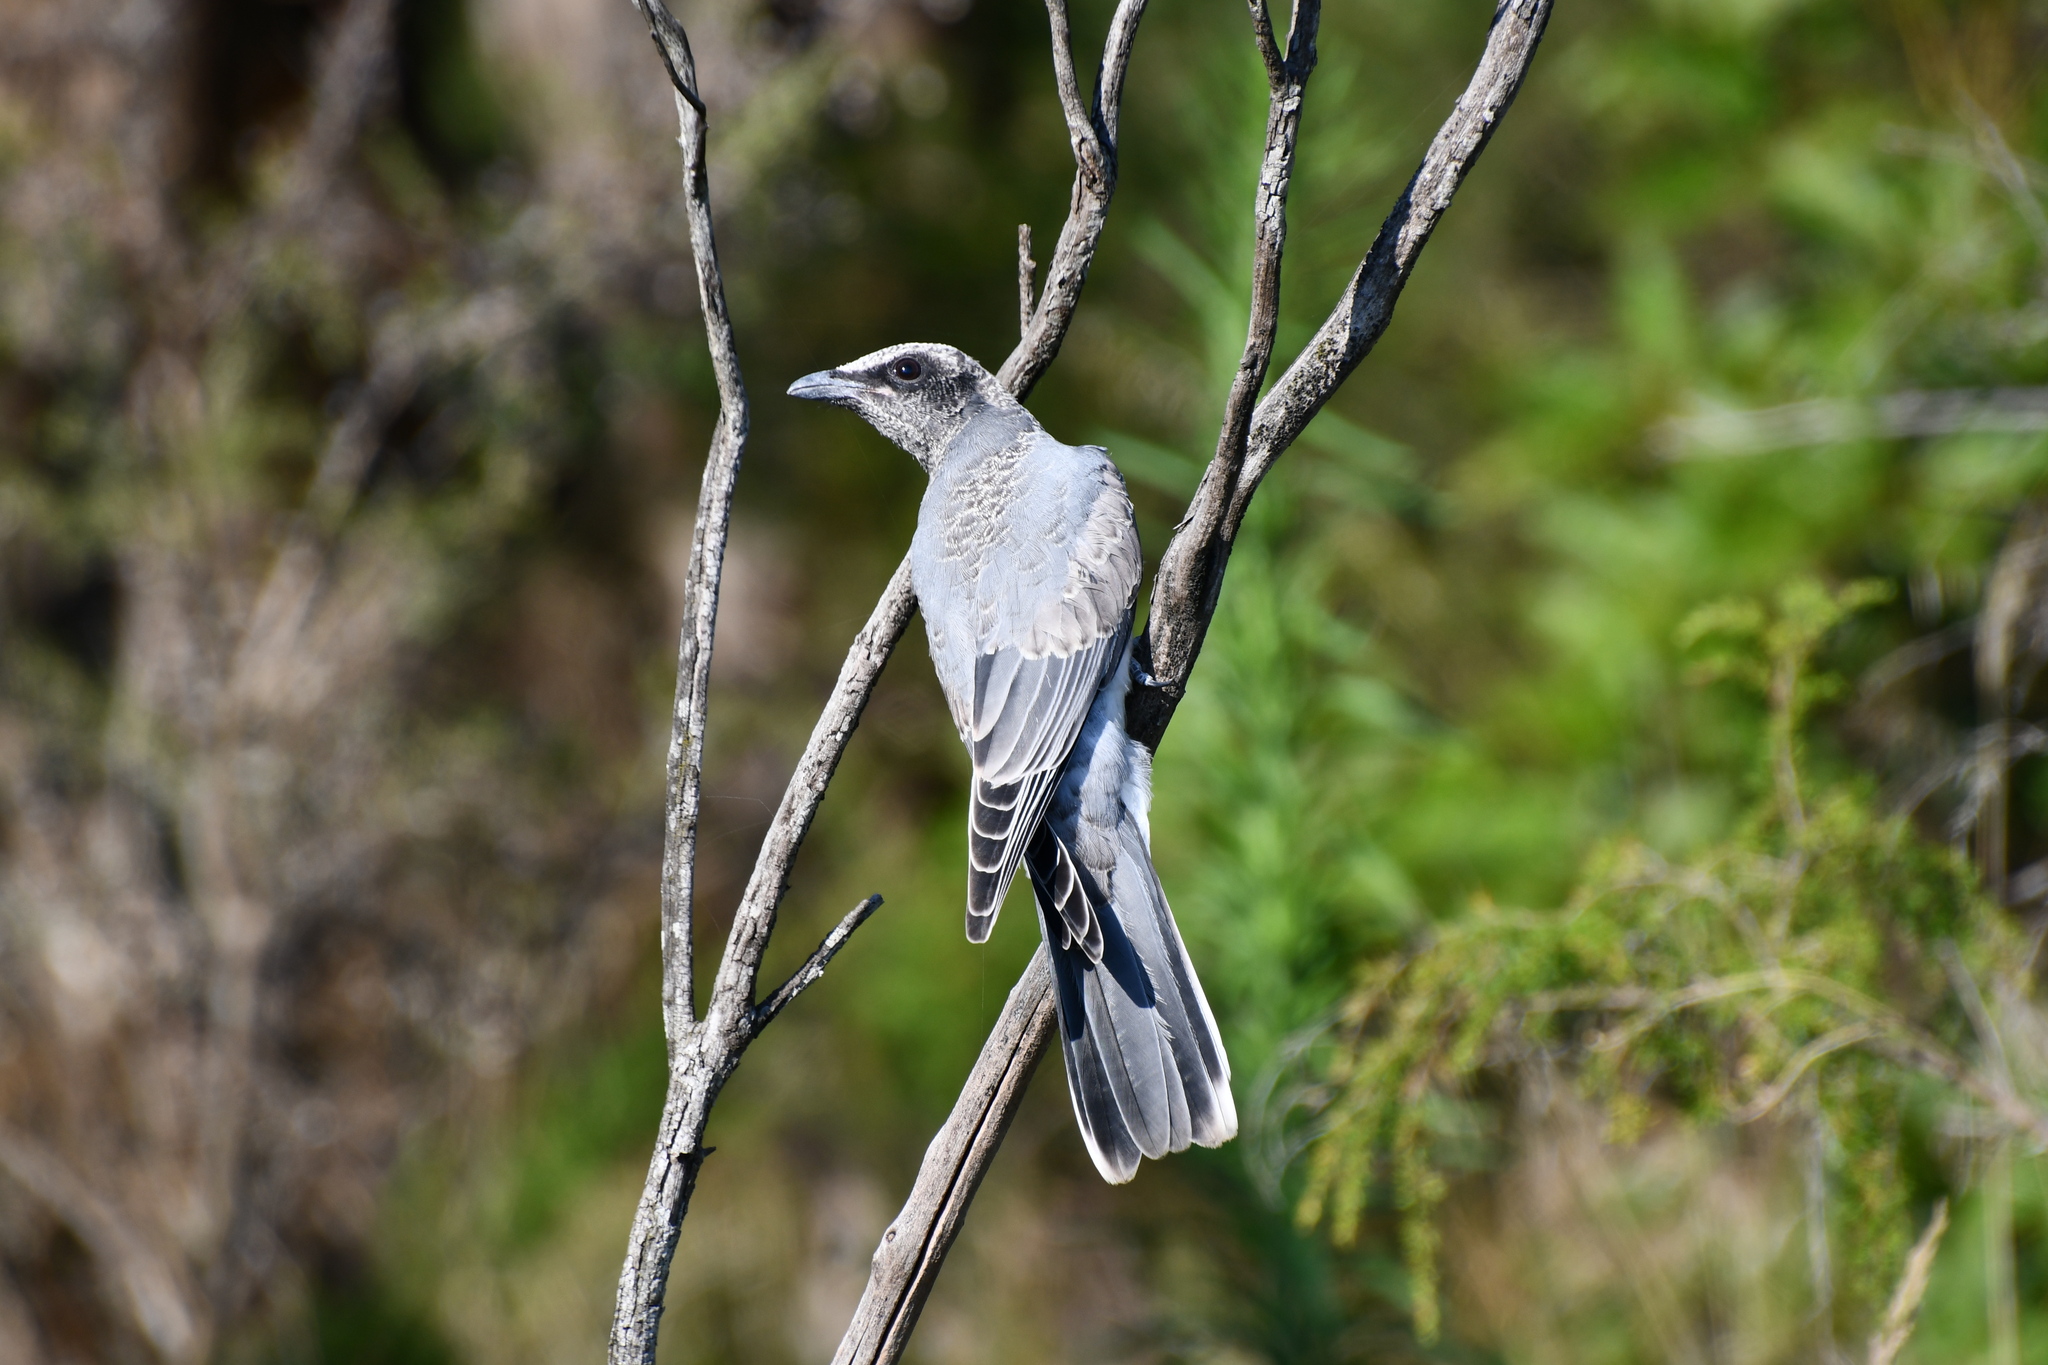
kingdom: Animalia
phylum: Chordata
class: Aves
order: Passeriformes
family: Campephagidae
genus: Coracina
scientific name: Coracina novaehollandiae
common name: Black-faced cuckooshrike
